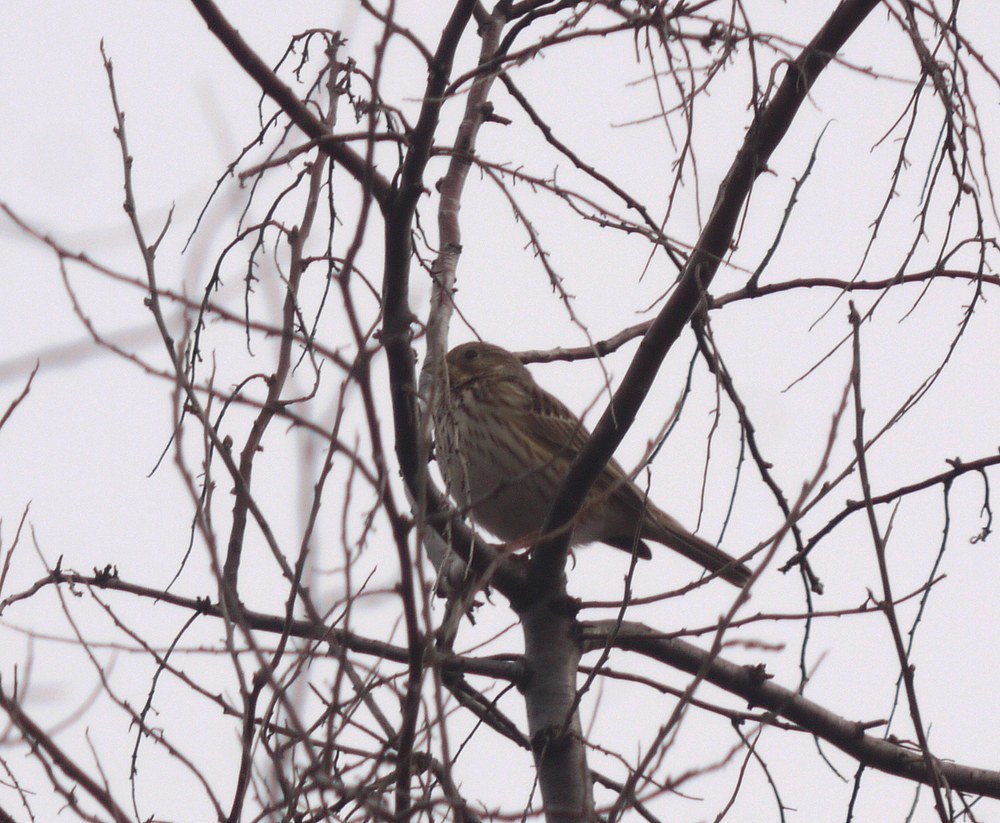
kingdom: Animalia
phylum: Chordata
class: Aves
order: Passeriformes
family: Emberizidae
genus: Emberiza
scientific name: Emberiza calandra
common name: Corn bunting
